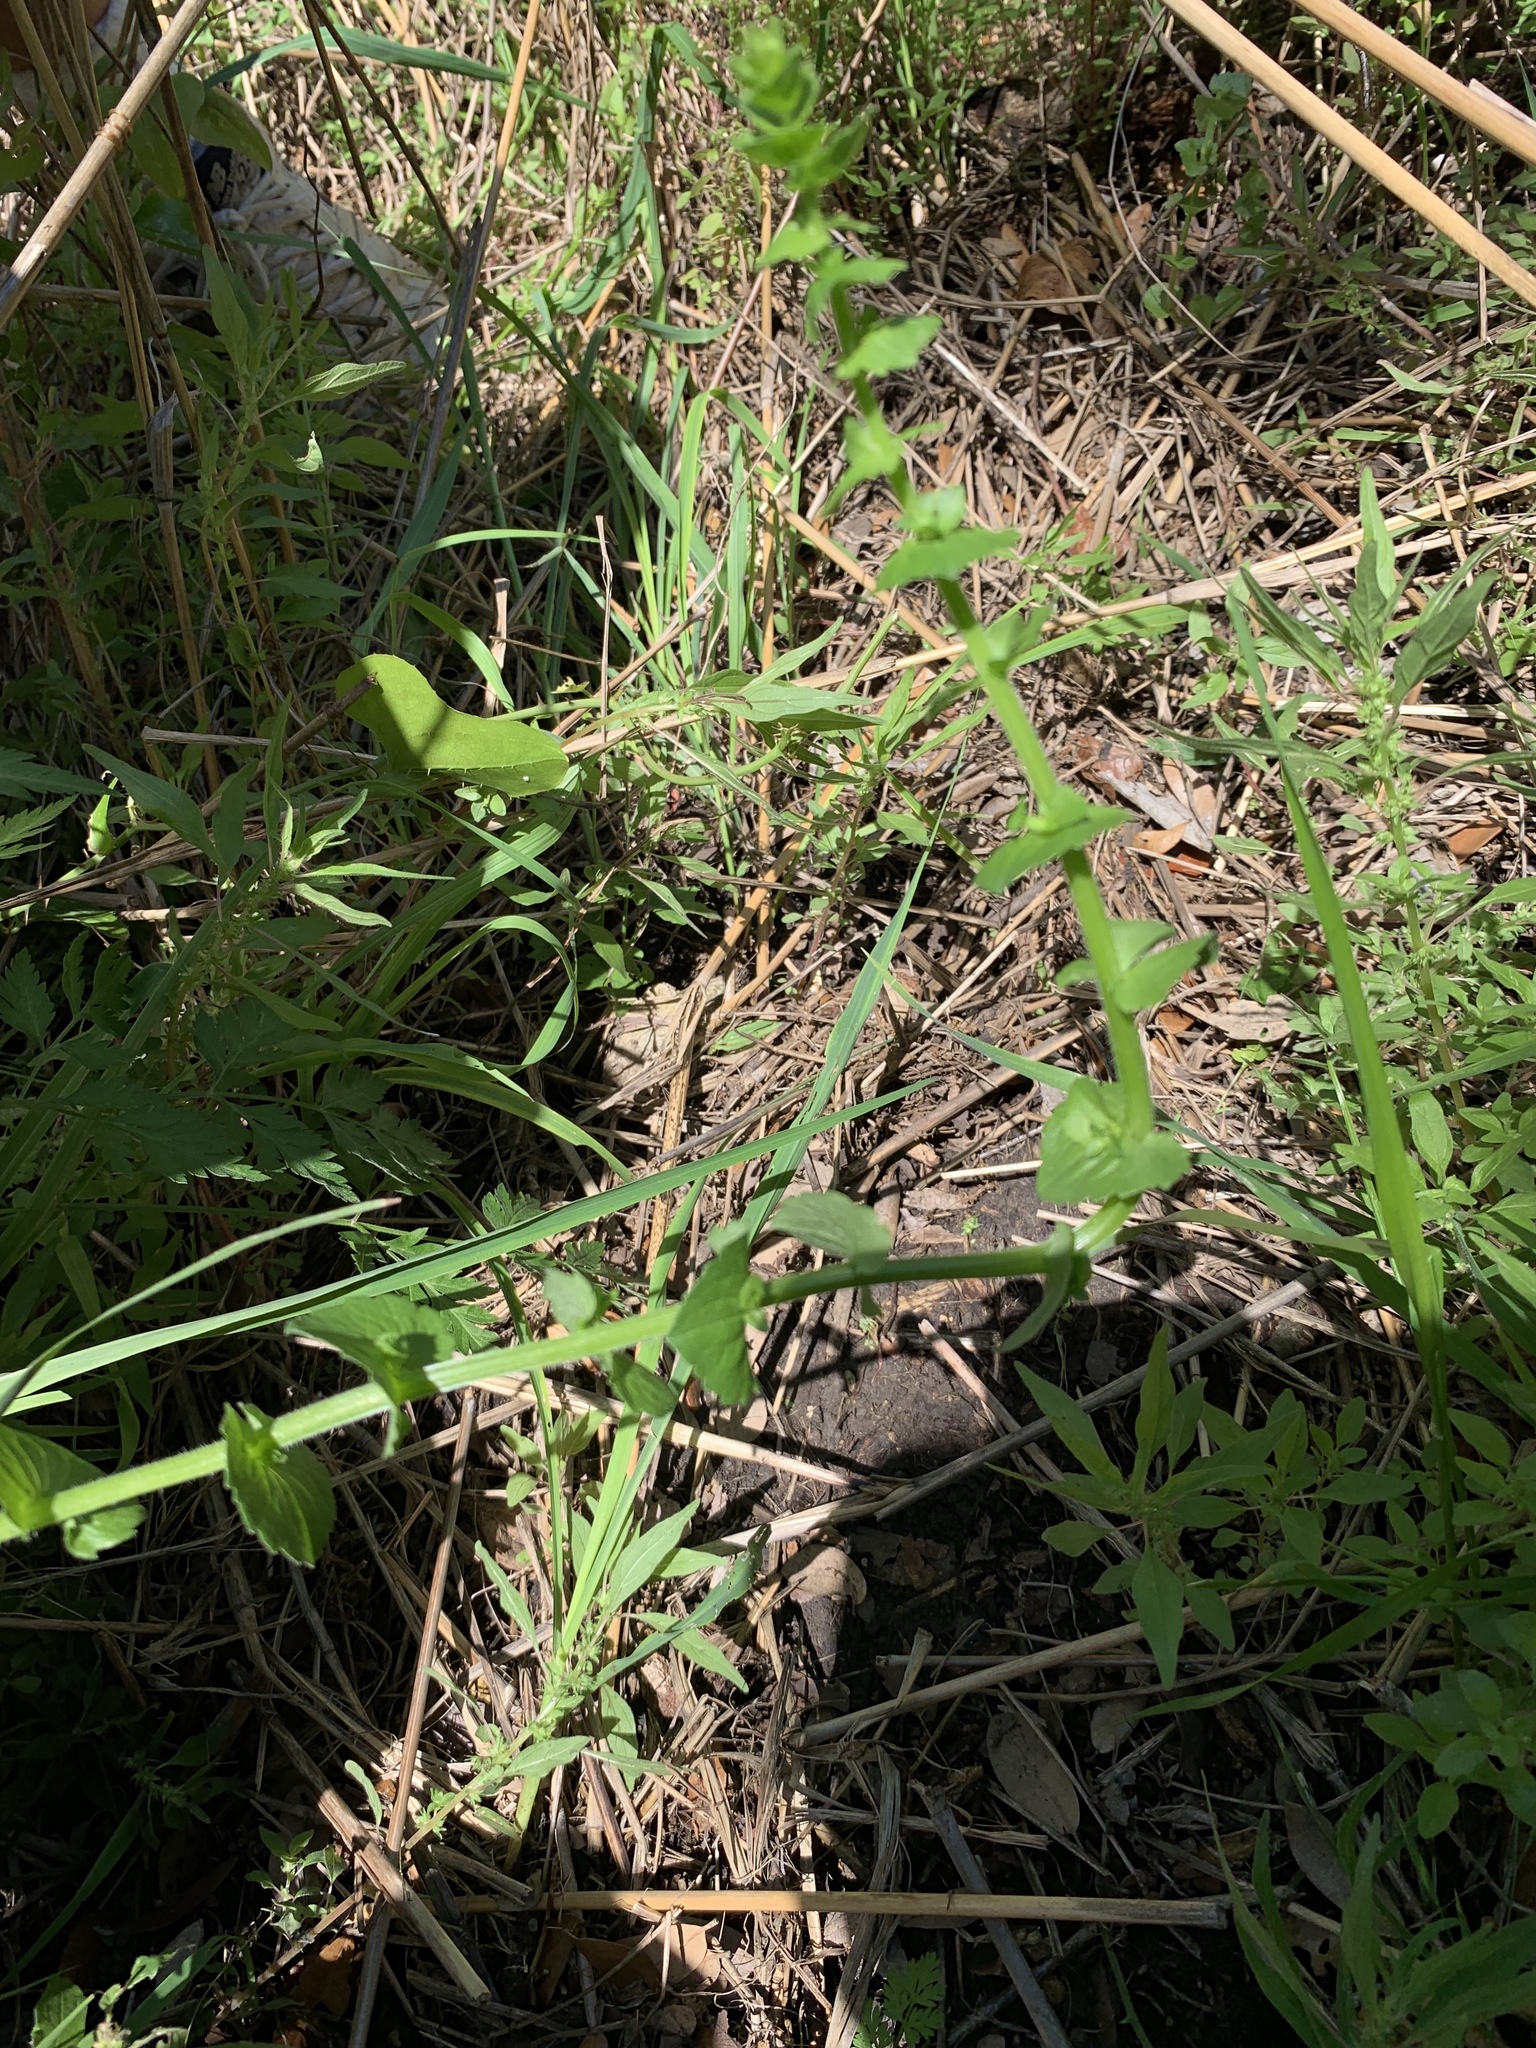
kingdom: Plantae
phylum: Tracheophyta
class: Magnoliopsida
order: Asterales
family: Campanulaceae
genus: Triodanis
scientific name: Triodanis perfoliata
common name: Clasping venus' looking-glass
